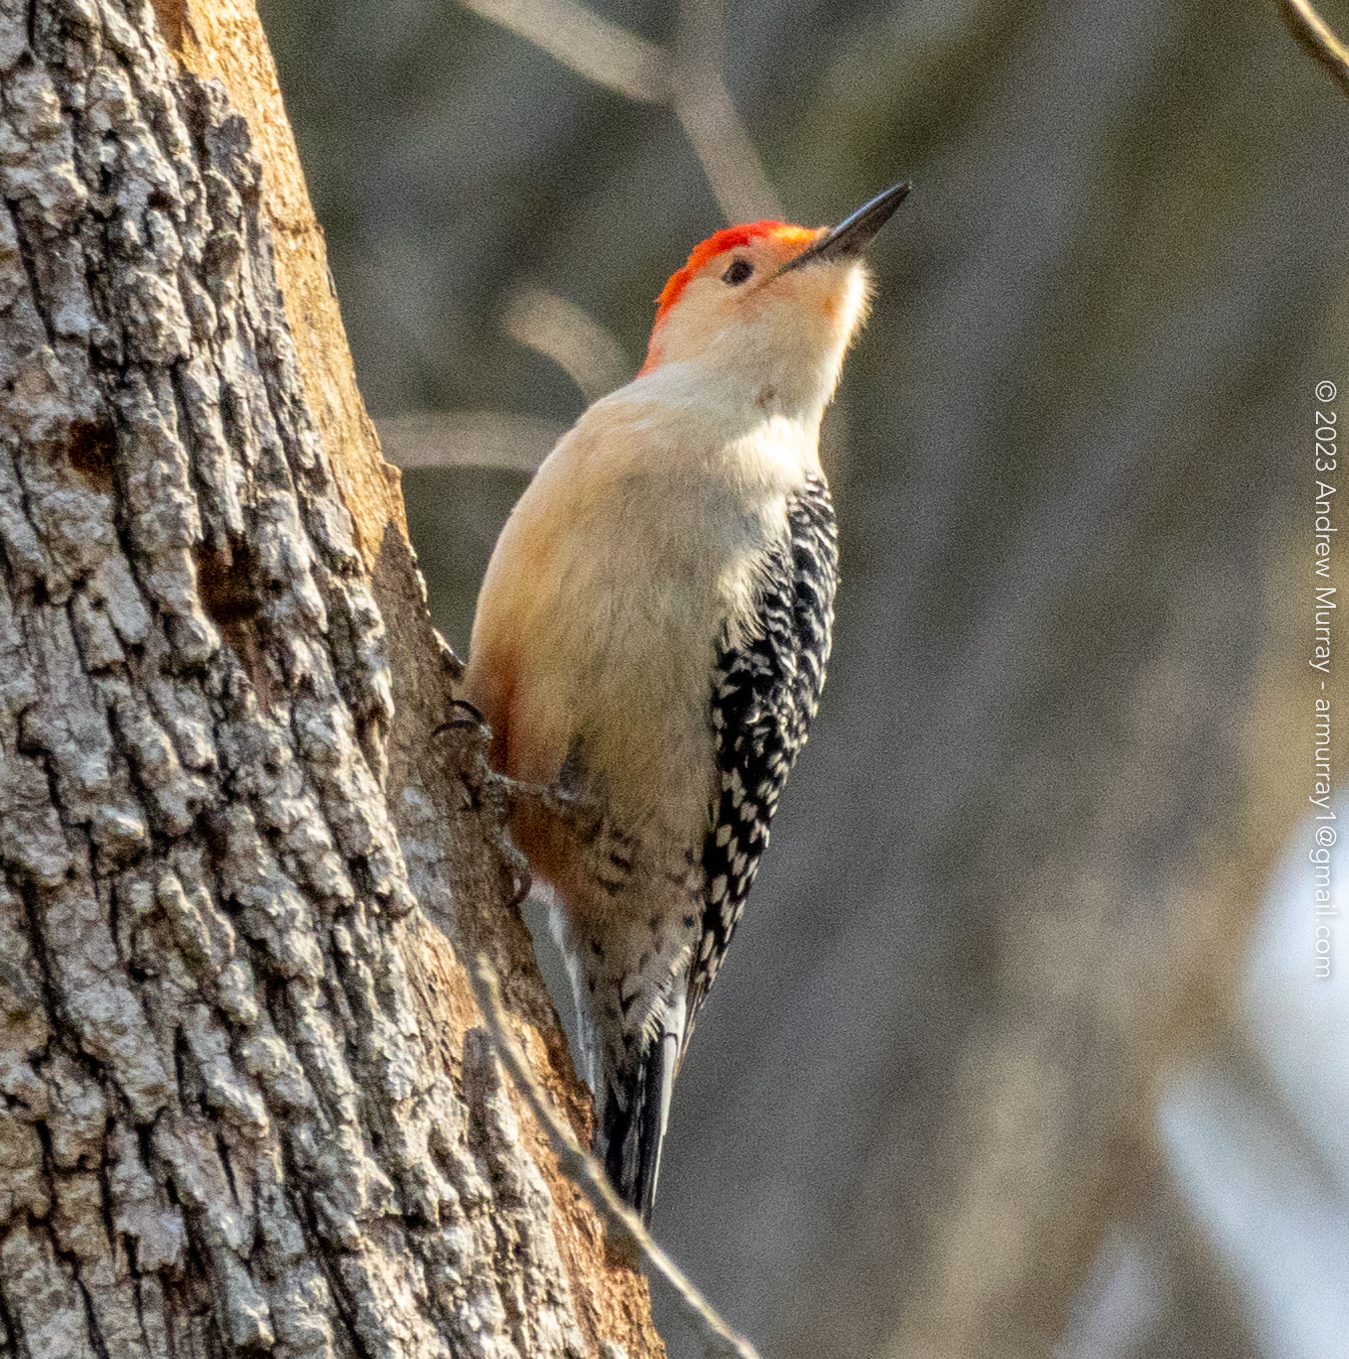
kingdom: Animalia
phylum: Chordata
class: Aves
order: Piciformes
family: Picidae
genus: Melanerpes
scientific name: Melanerpes carolinus
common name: Red-bellied woodpecker
